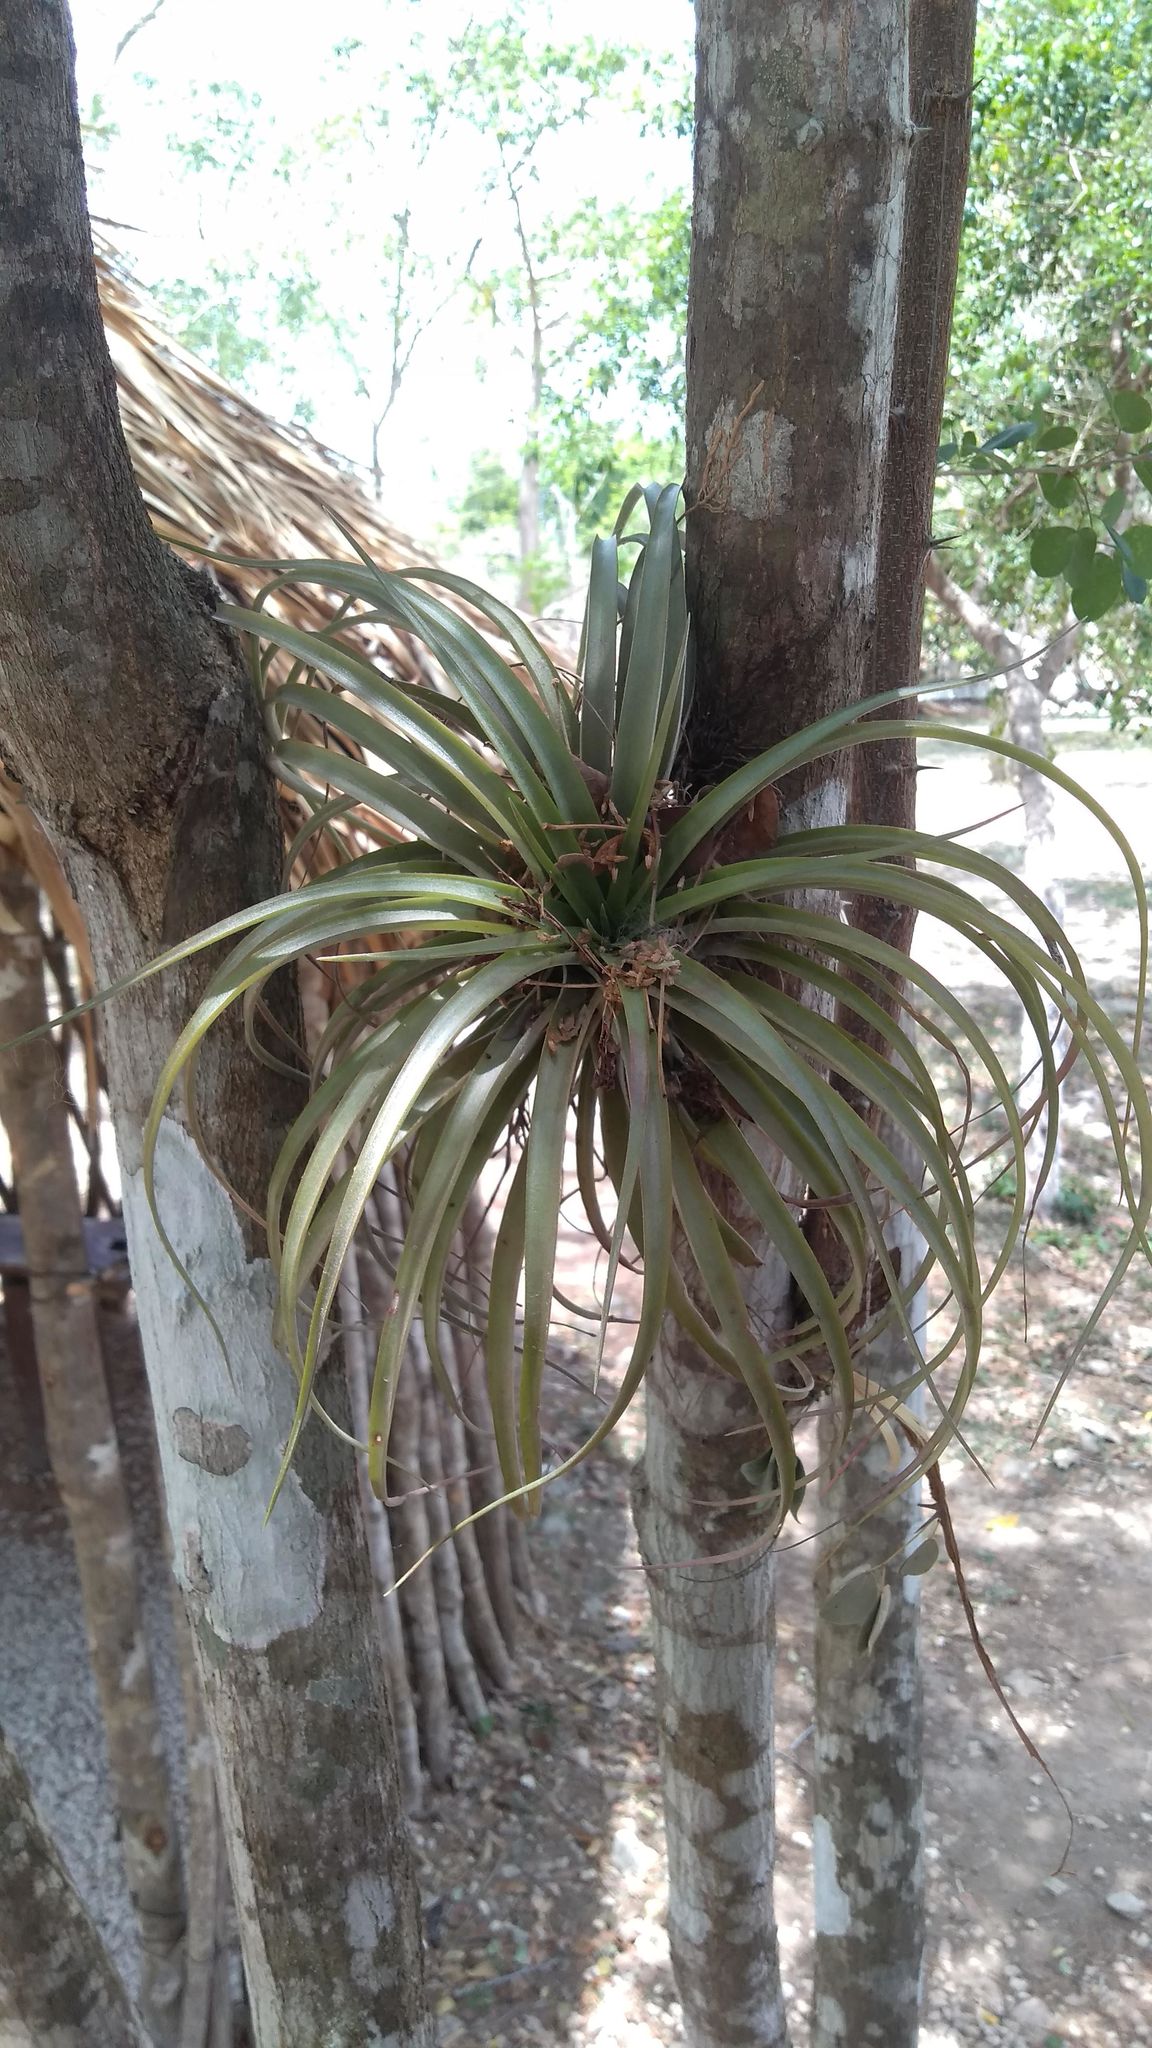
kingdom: Plantae
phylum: Tracheophyta
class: Liliopsida
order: Poales
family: Bromeliaceae
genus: Tillandsia
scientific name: Tillandsia brachycaulos
